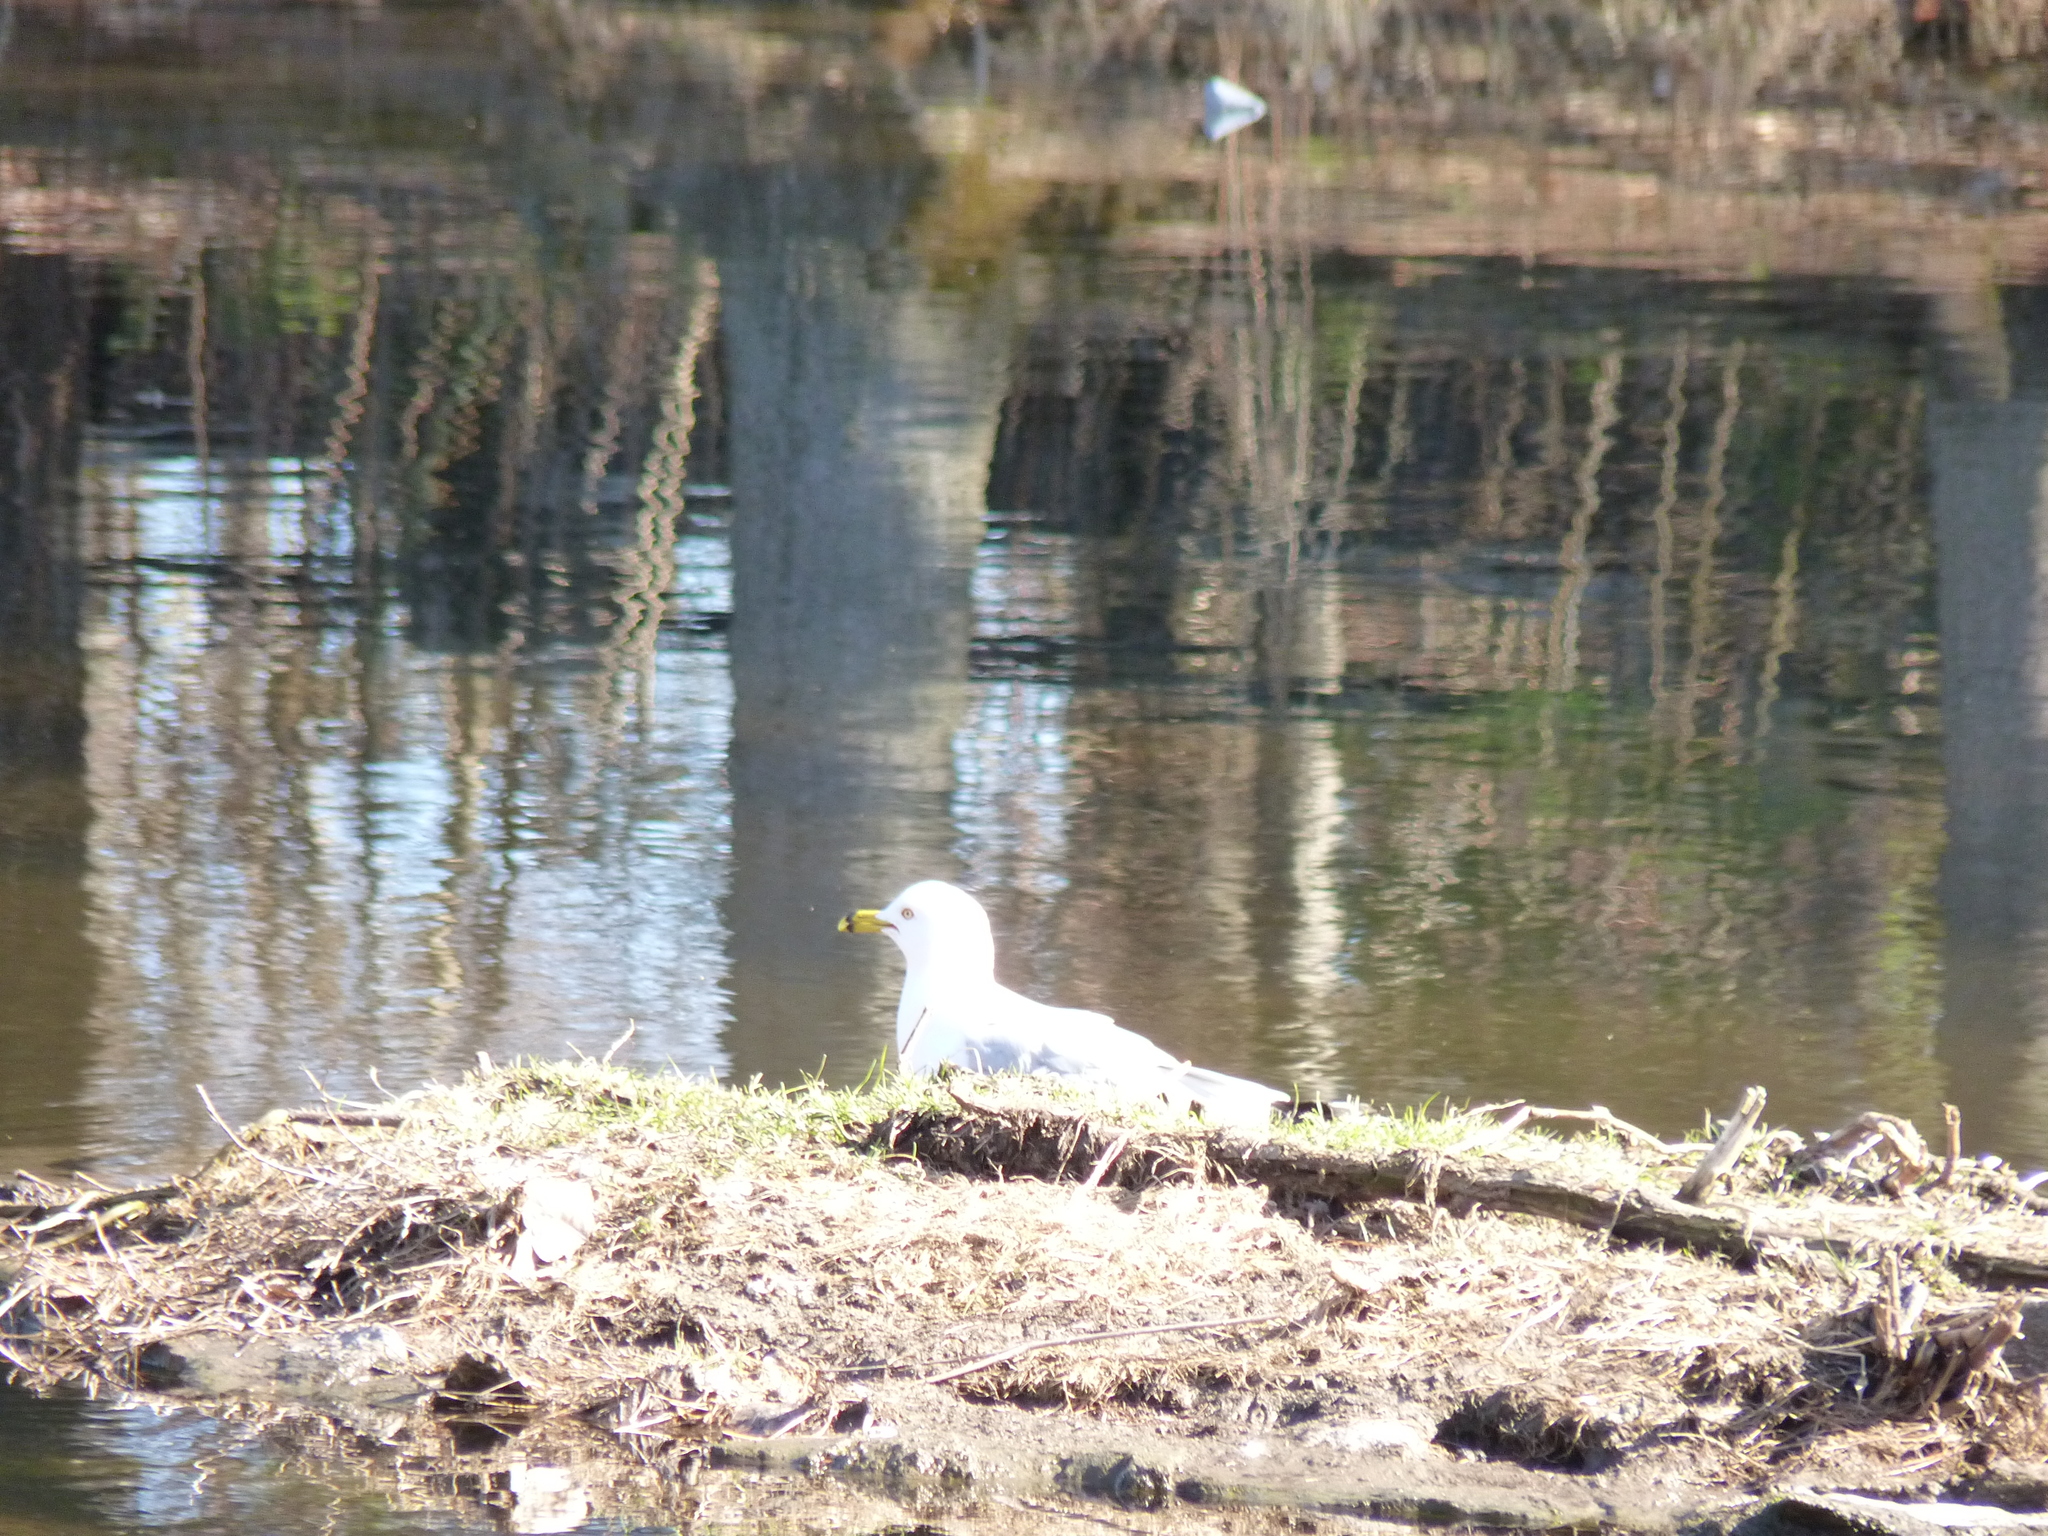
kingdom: Animalia
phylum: Chordata
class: Aves
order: Charadriiformes
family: Laridae
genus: Larus
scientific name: Larus delawarensis
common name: Ring-billed gull
